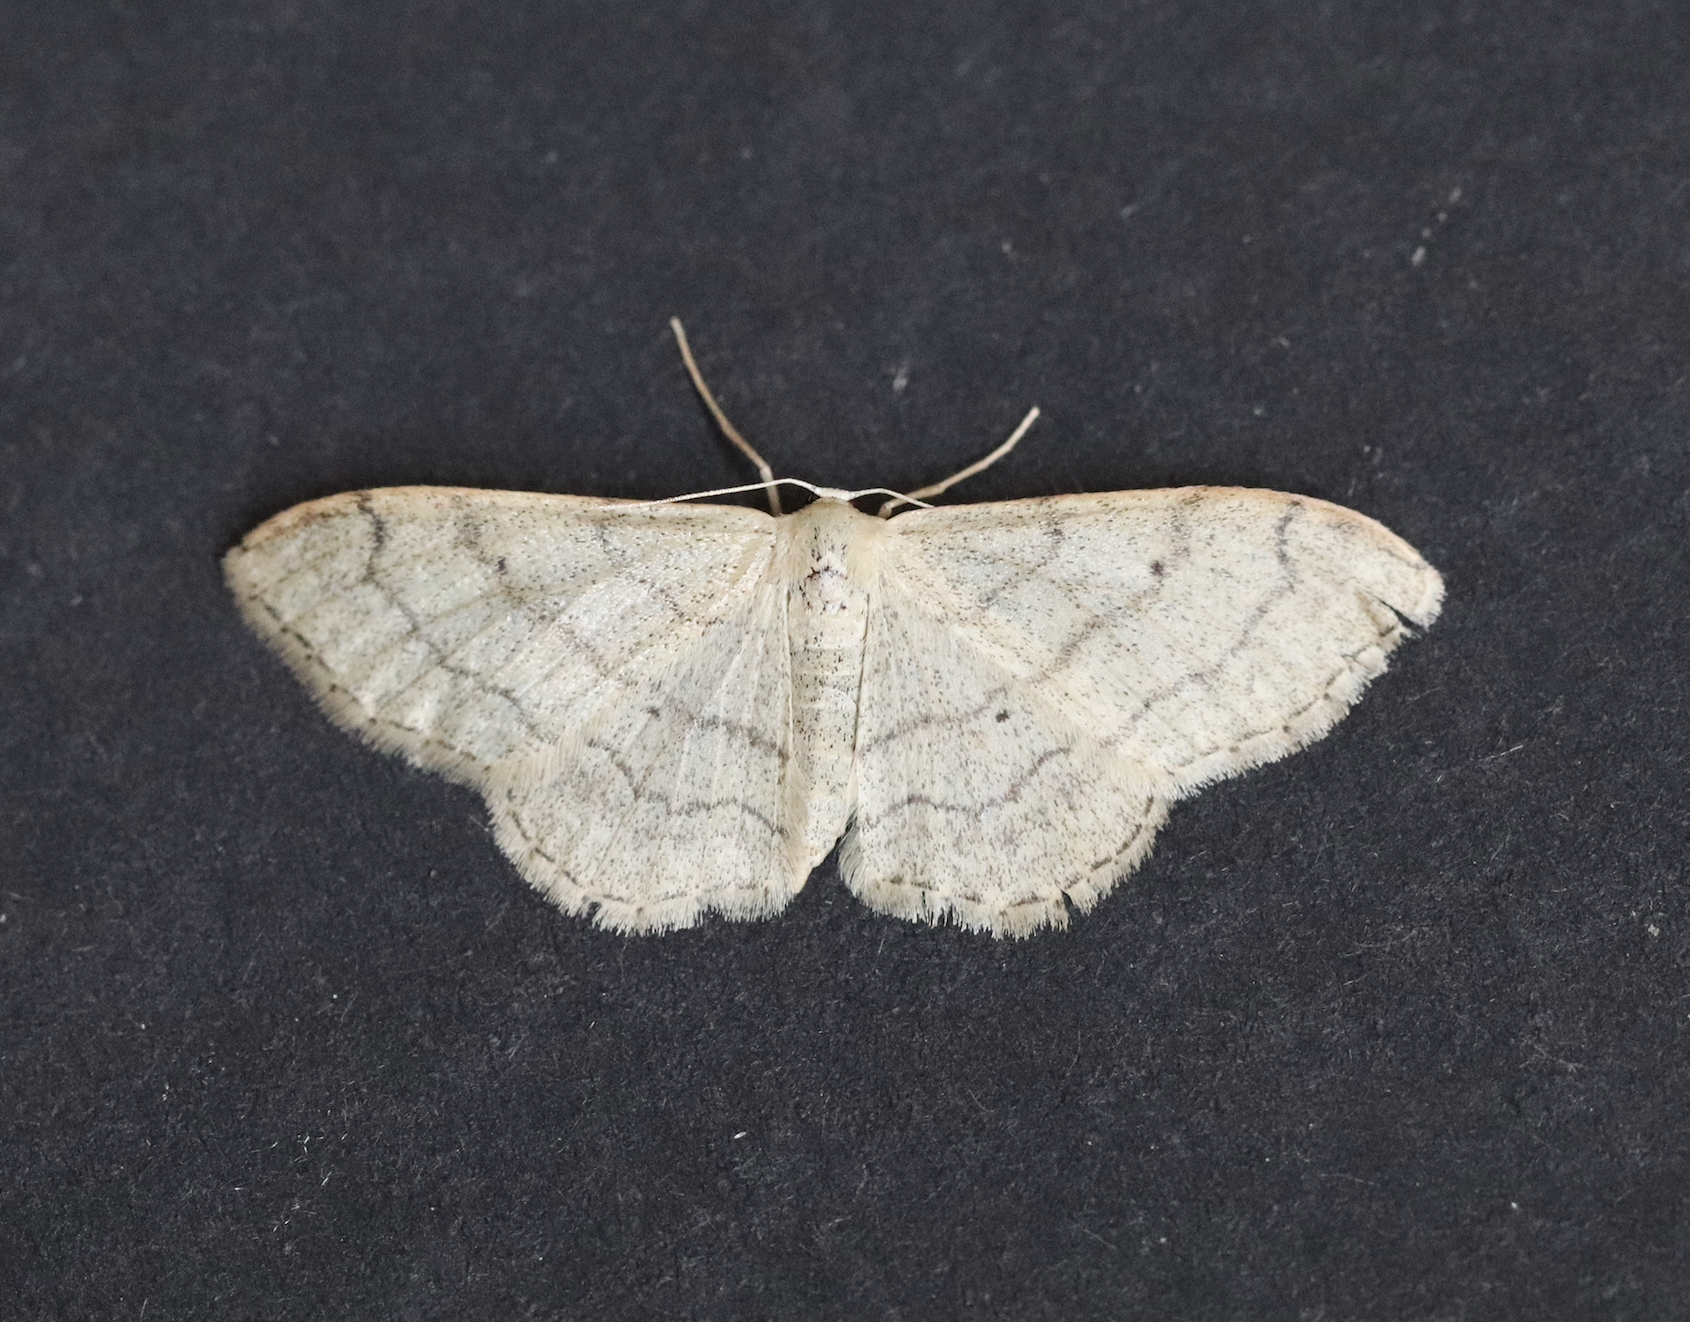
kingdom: Animalia
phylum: Arthropoda
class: Insecta
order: Lepidoptera
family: Geometridae
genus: Idaea
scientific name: Idaea aversata
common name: Riband wave
